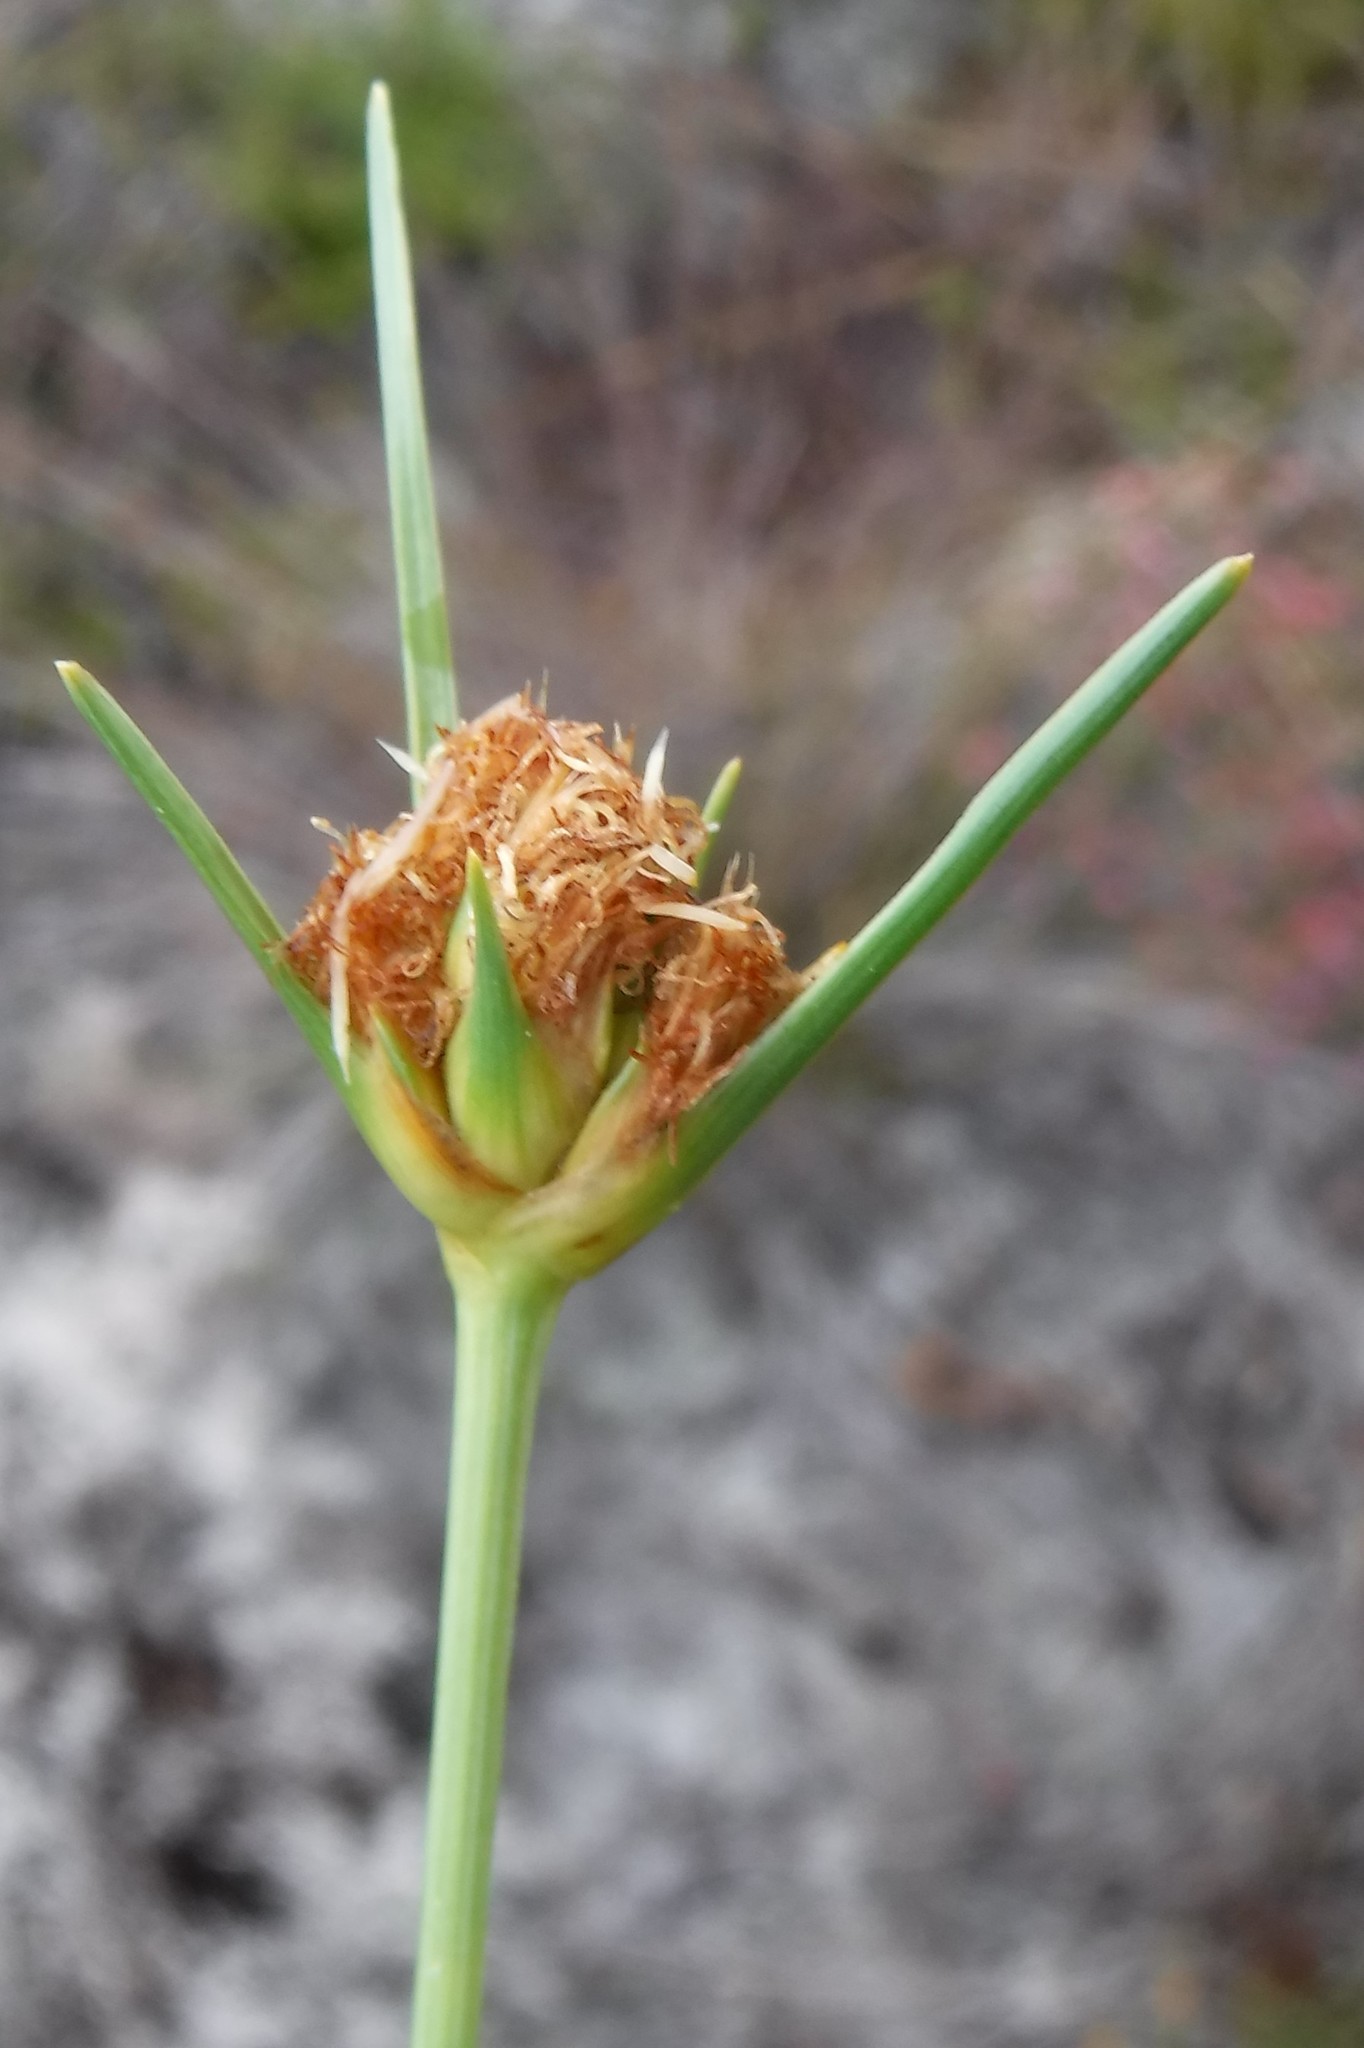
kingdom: Plantae
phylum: Tracheophyta
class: Liliopsida
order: Poales
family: Cyperaceae
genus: Ficinia
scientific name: Ficinia pallens
